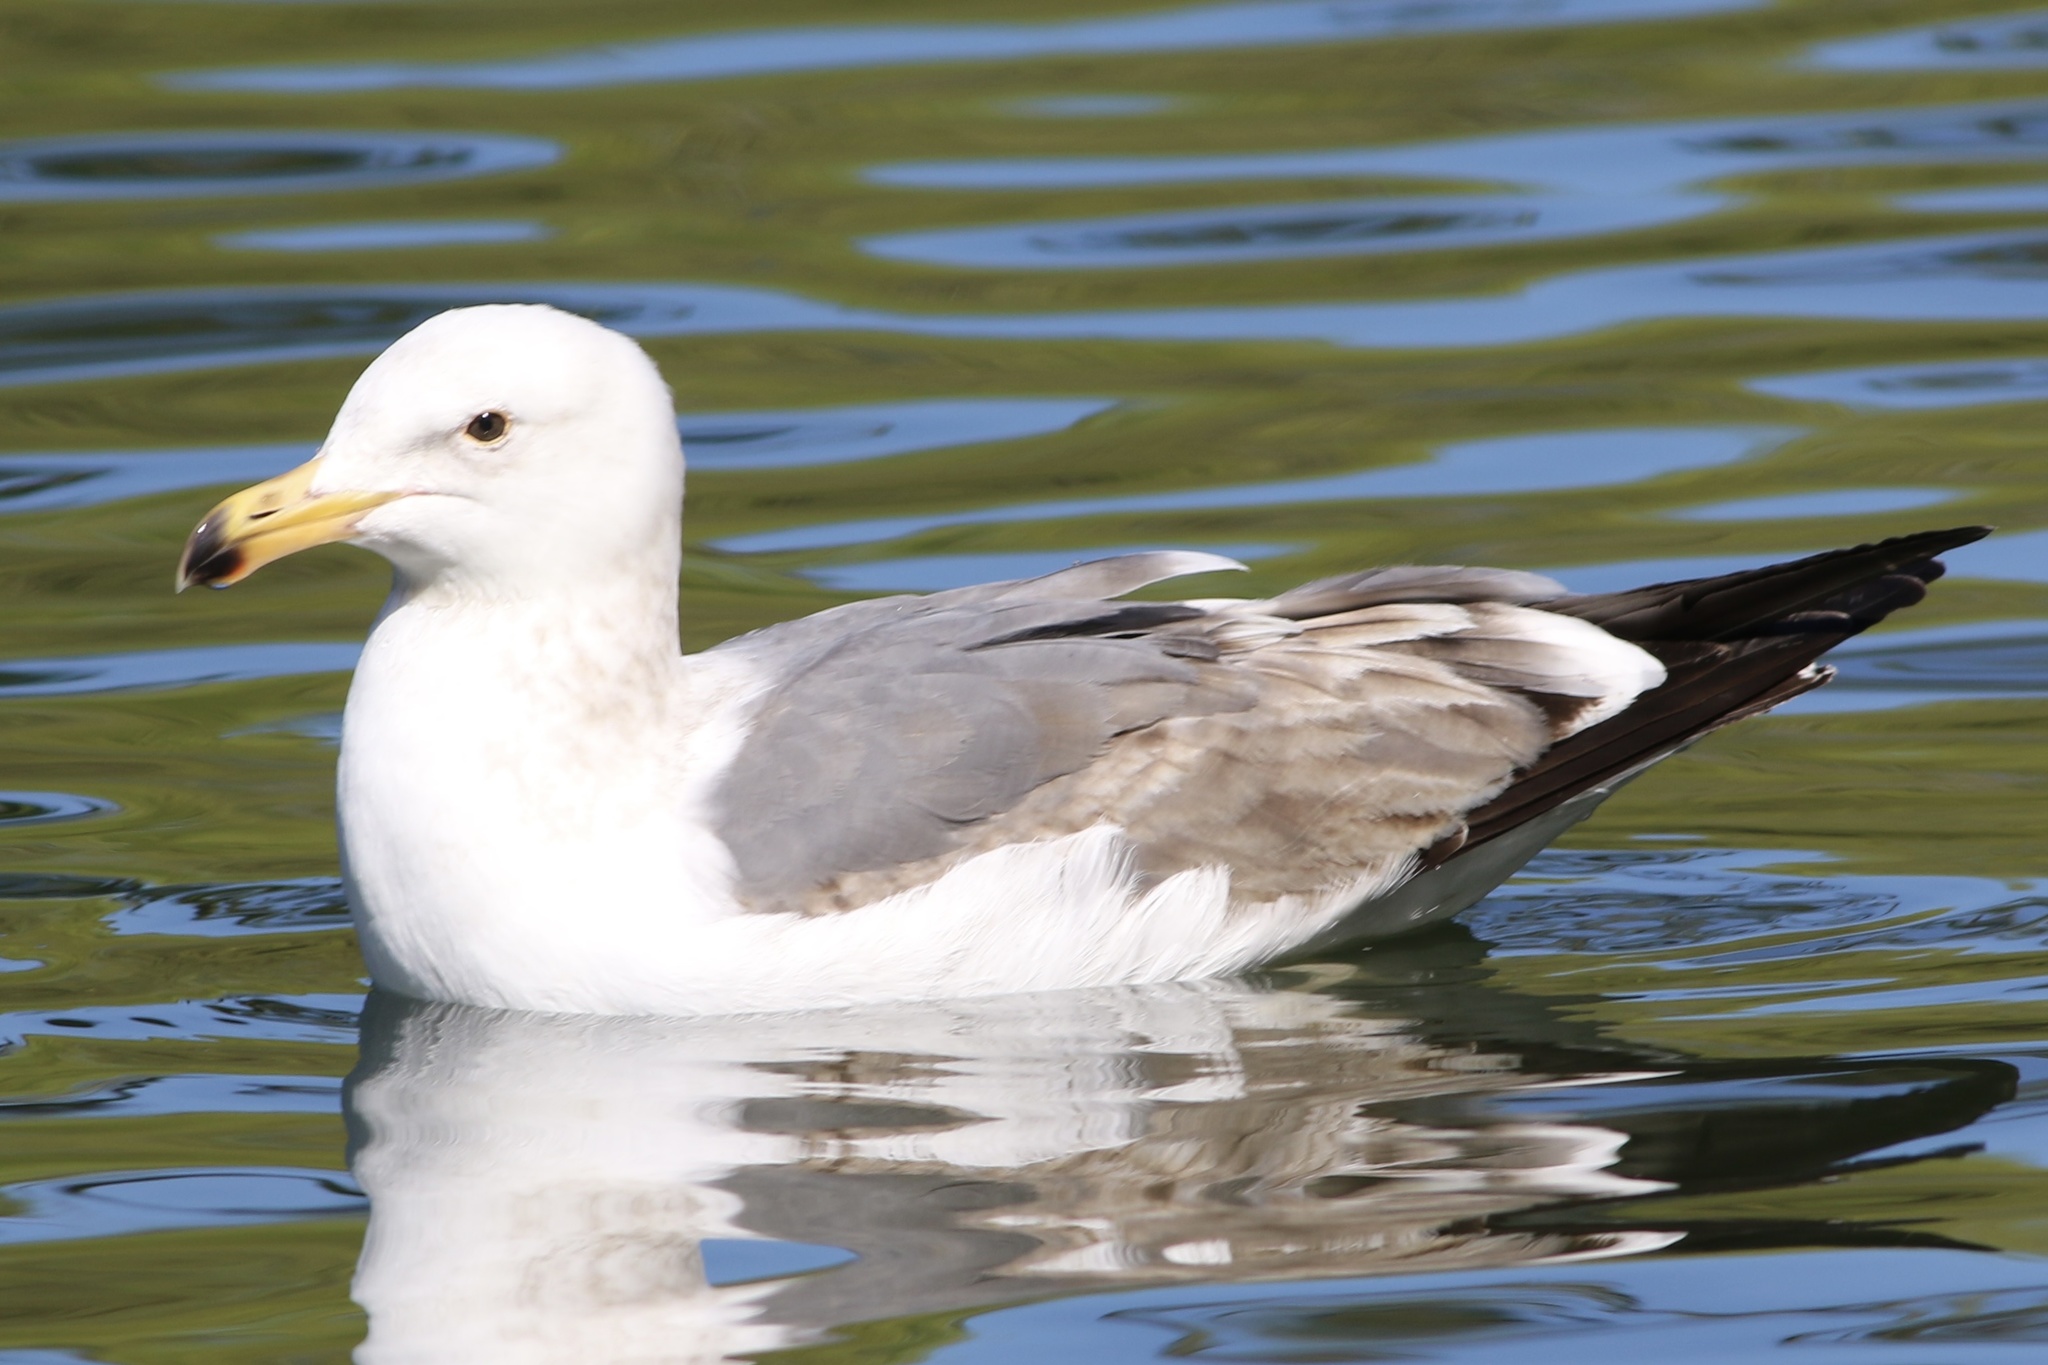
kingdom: Animalia
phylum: Chordata
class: Aves
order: Charadriiformes
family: Laridae
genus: Larus
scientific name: Larus occidentalis
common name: Western gull
